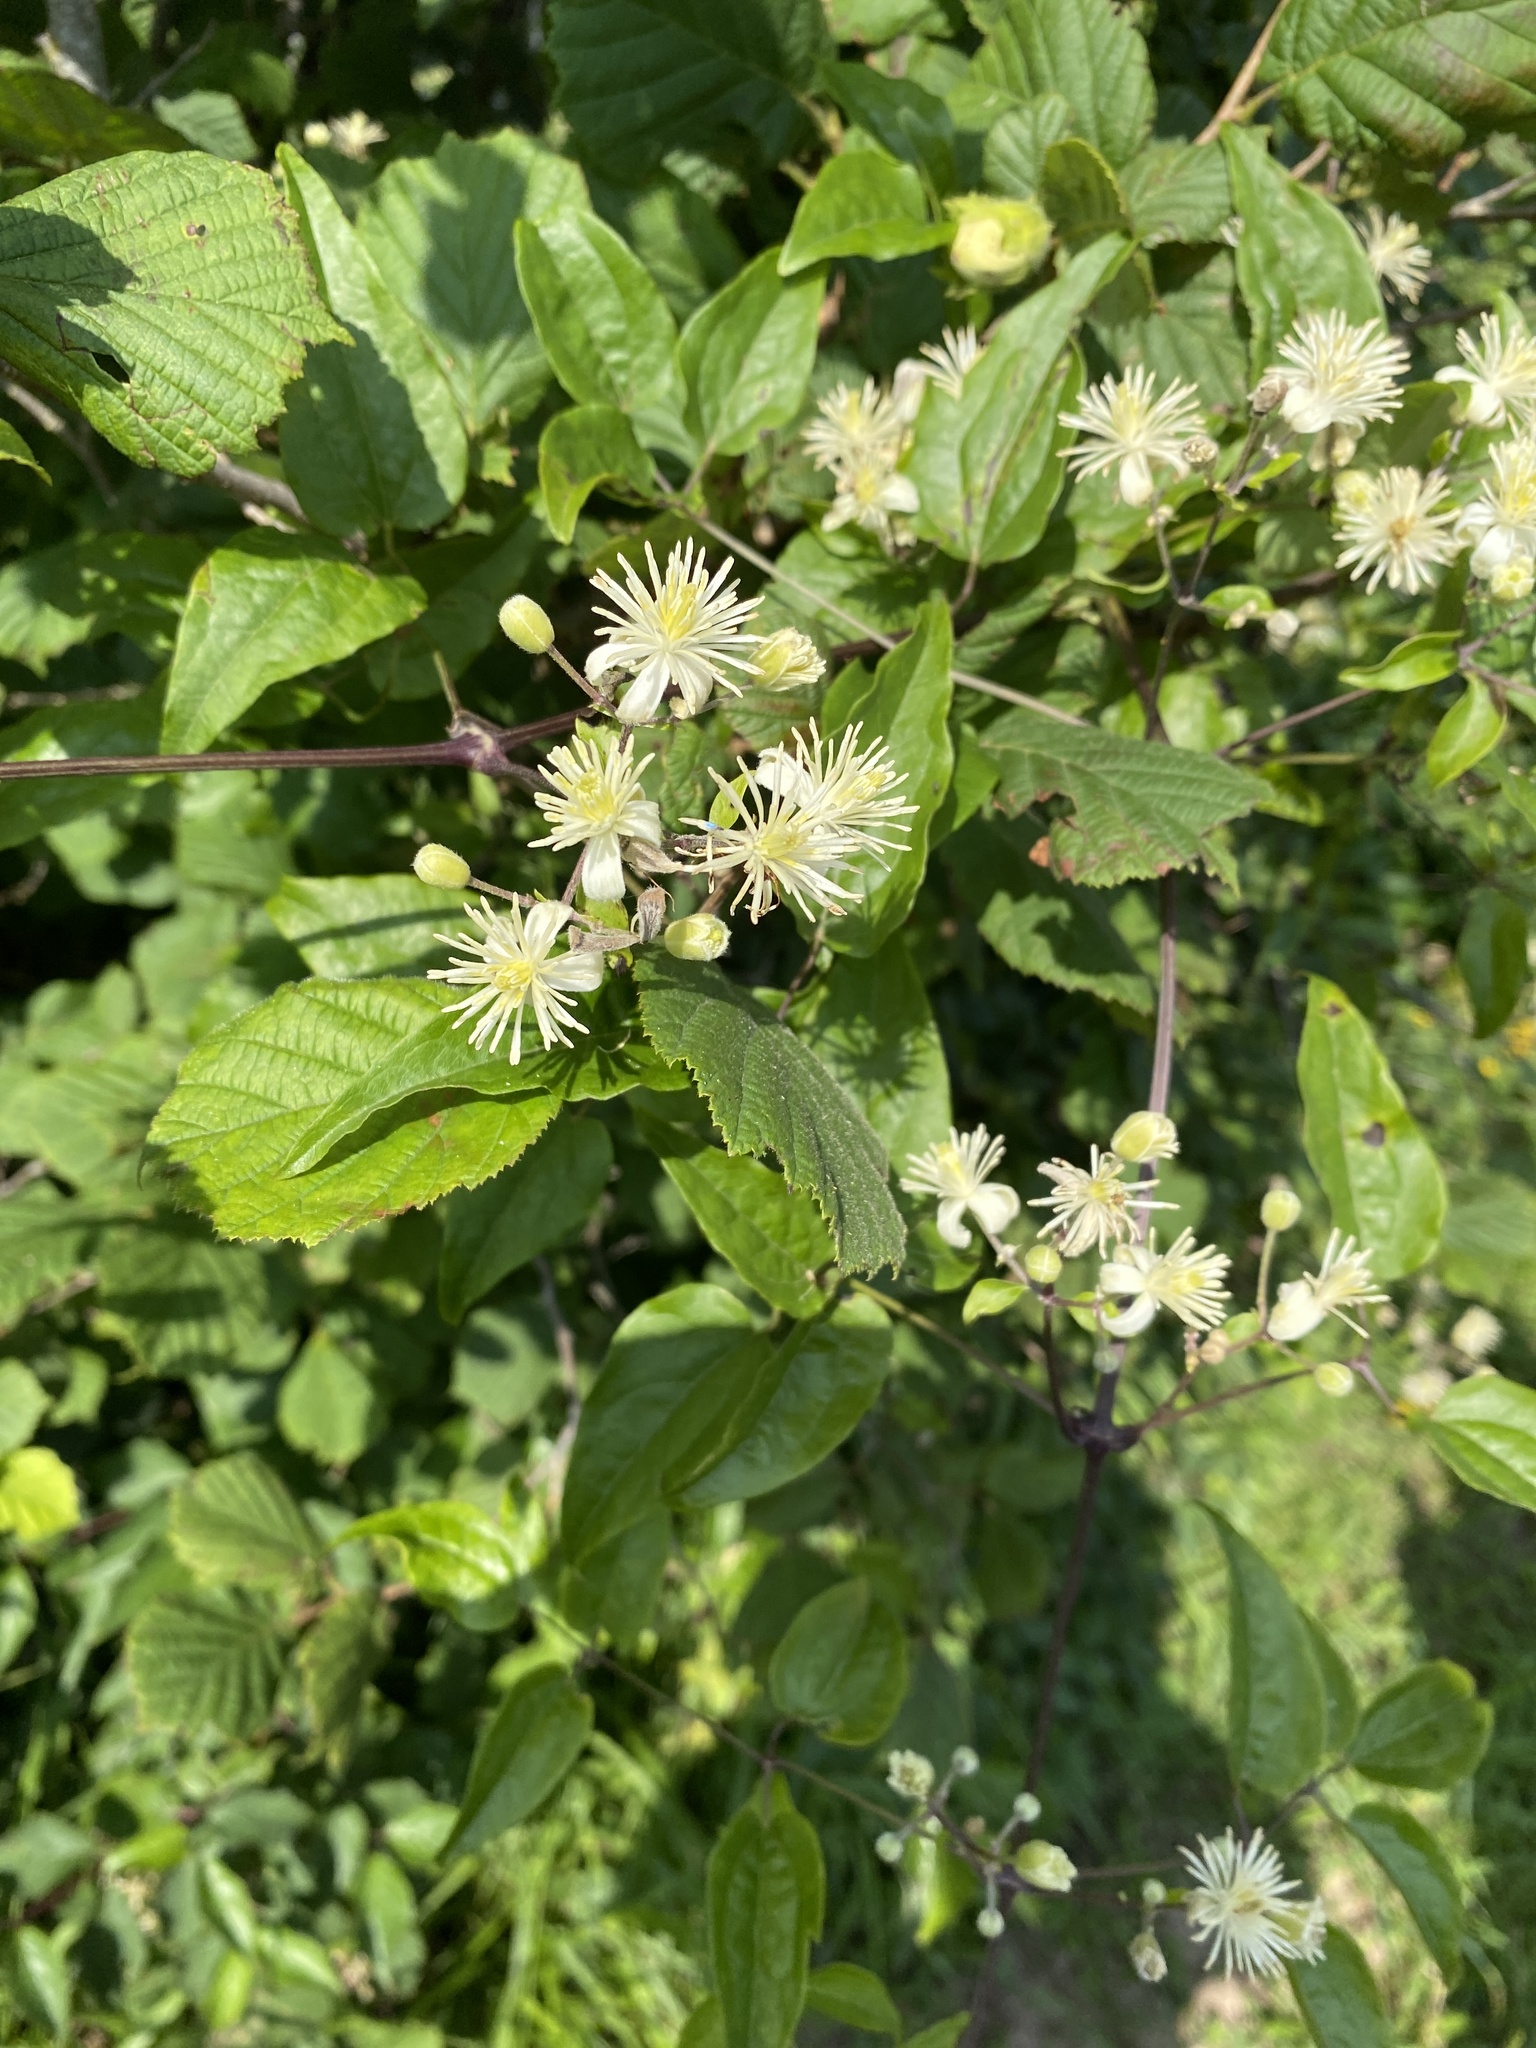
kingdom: Plantae
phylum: Tracheophyta
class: Magnoliopsida
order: Ranunculales
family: Ranunculaceae
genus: Clematis
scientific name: Clematis vitalba
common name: Evergreen clematis
